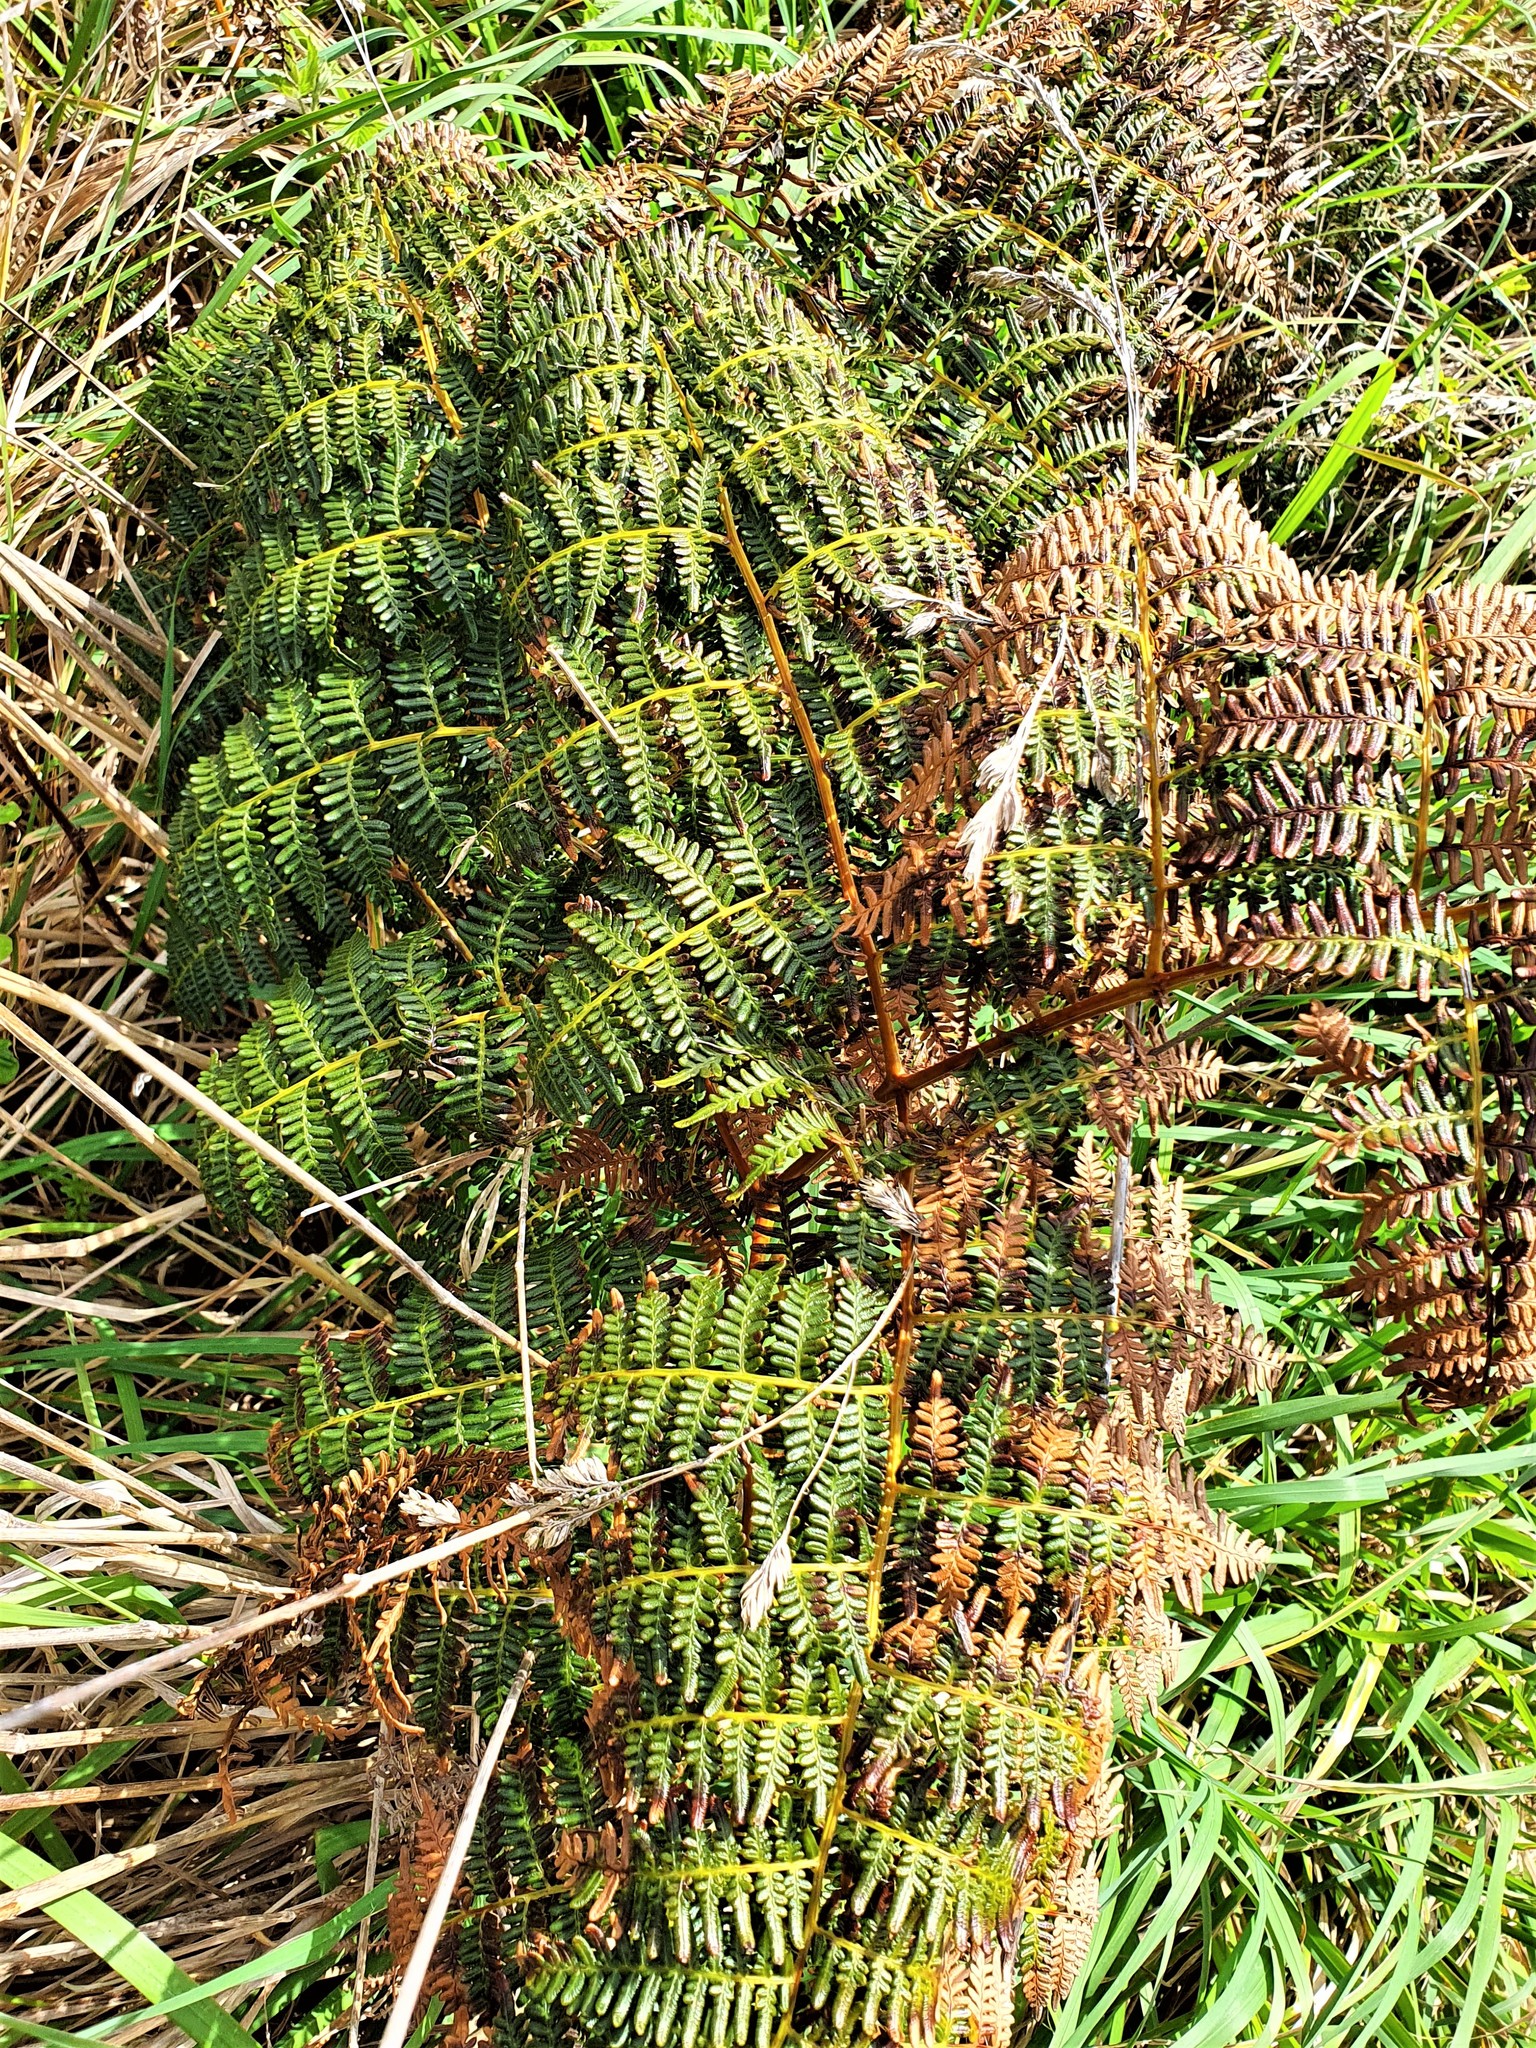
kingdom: Plantae
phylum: Tracheophyta
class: Polypodiopsida
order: Polypodiales
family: Dennstaedtiaceae
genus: Pteridium
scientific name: Pteridium esculentum
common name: Bracken fern
